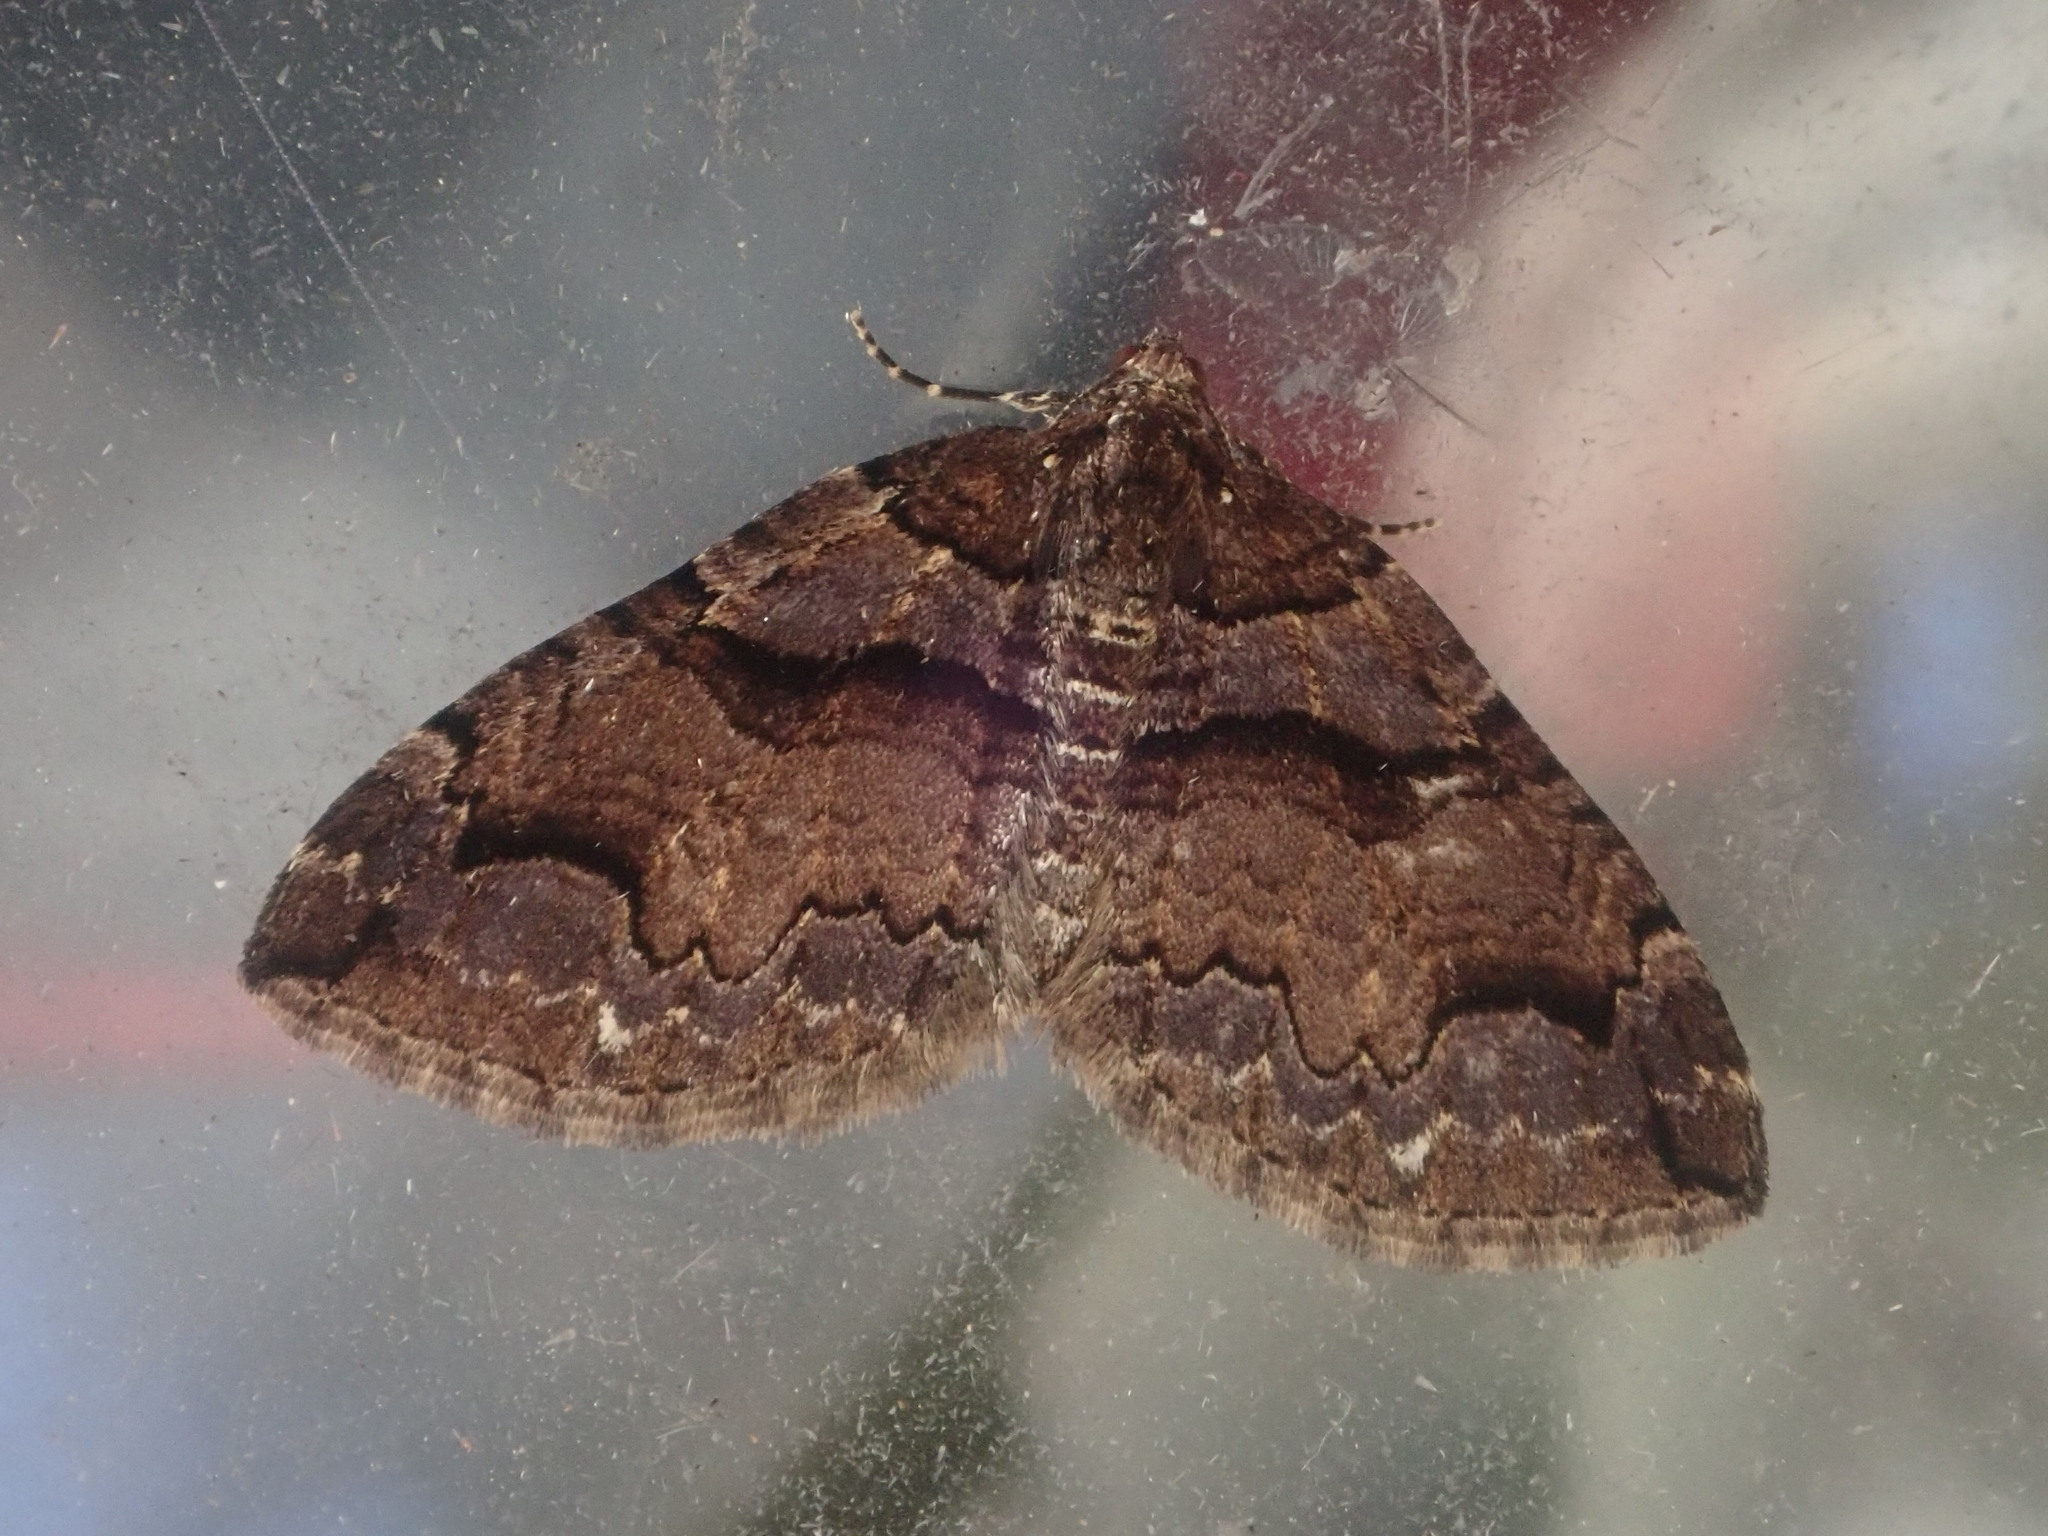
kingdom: Animalia
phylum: Arthropoda
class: Insecta
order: Lepidoptera
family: Geometridae
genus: Anticlea
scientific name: Anticlea vasiliata
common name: Variable carpet
